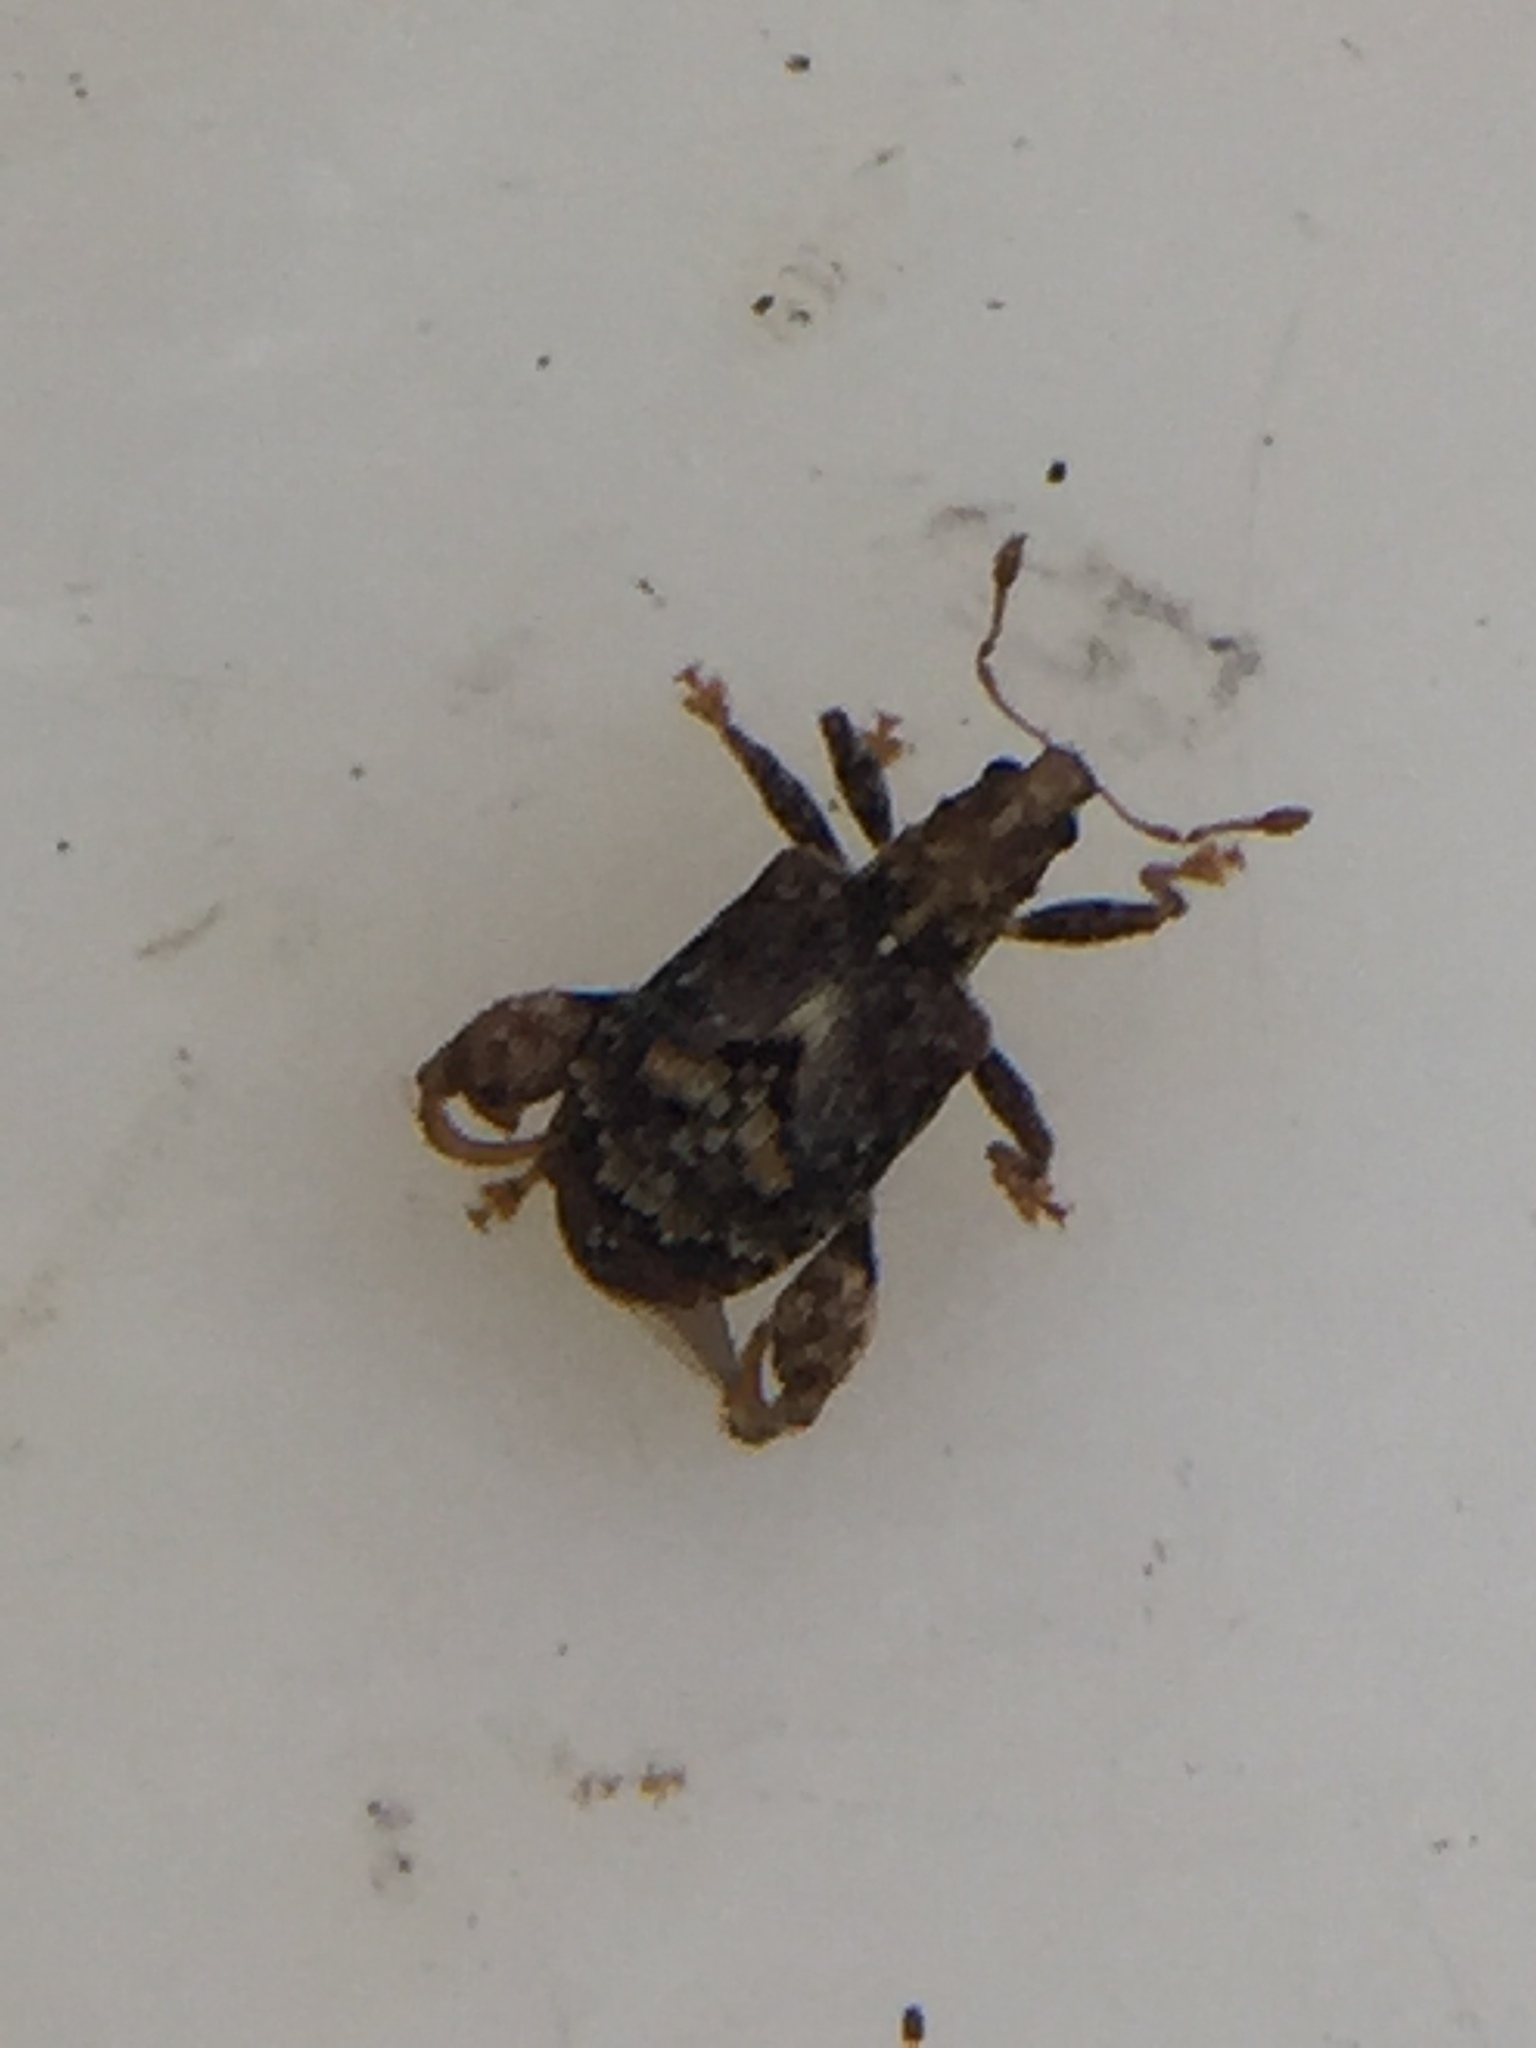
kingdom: Animalia
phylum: Arthropoda
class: Insecta
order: Coleoptera
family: Curculionidae
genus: Pactola
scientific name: Pactola variabilis
